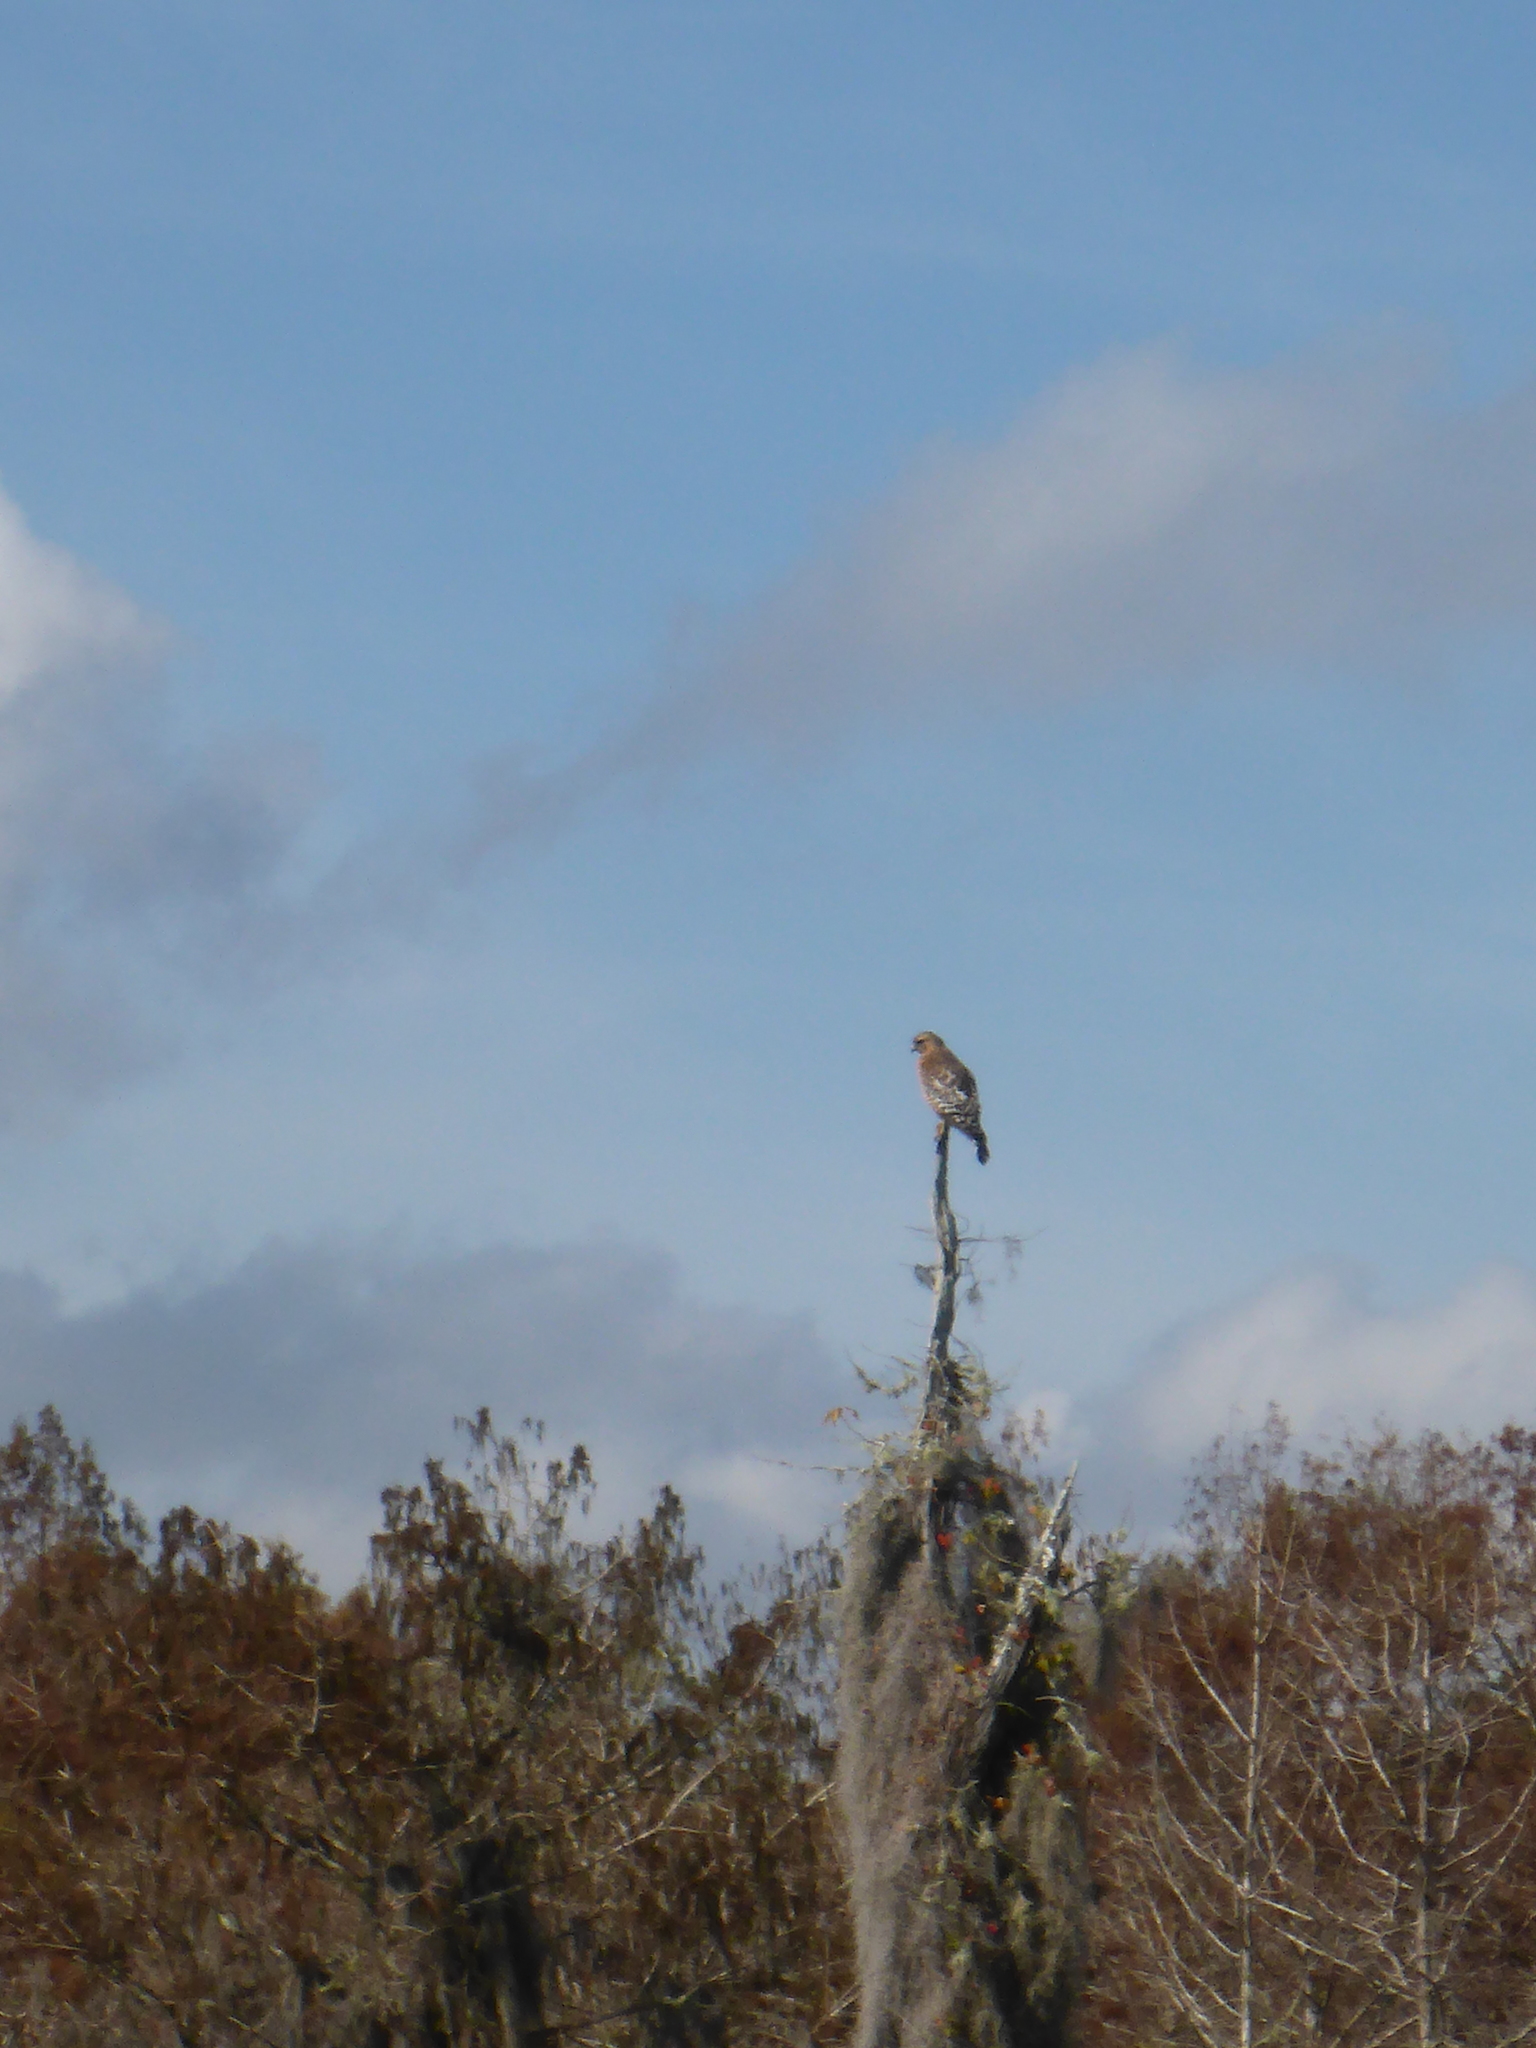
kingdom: Animalia
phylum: Chordata
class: Aves
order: Accipitriformes
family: Accipitridae
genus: Buteo
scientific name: Buteo lineatus
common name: Red-shouldered hawk
